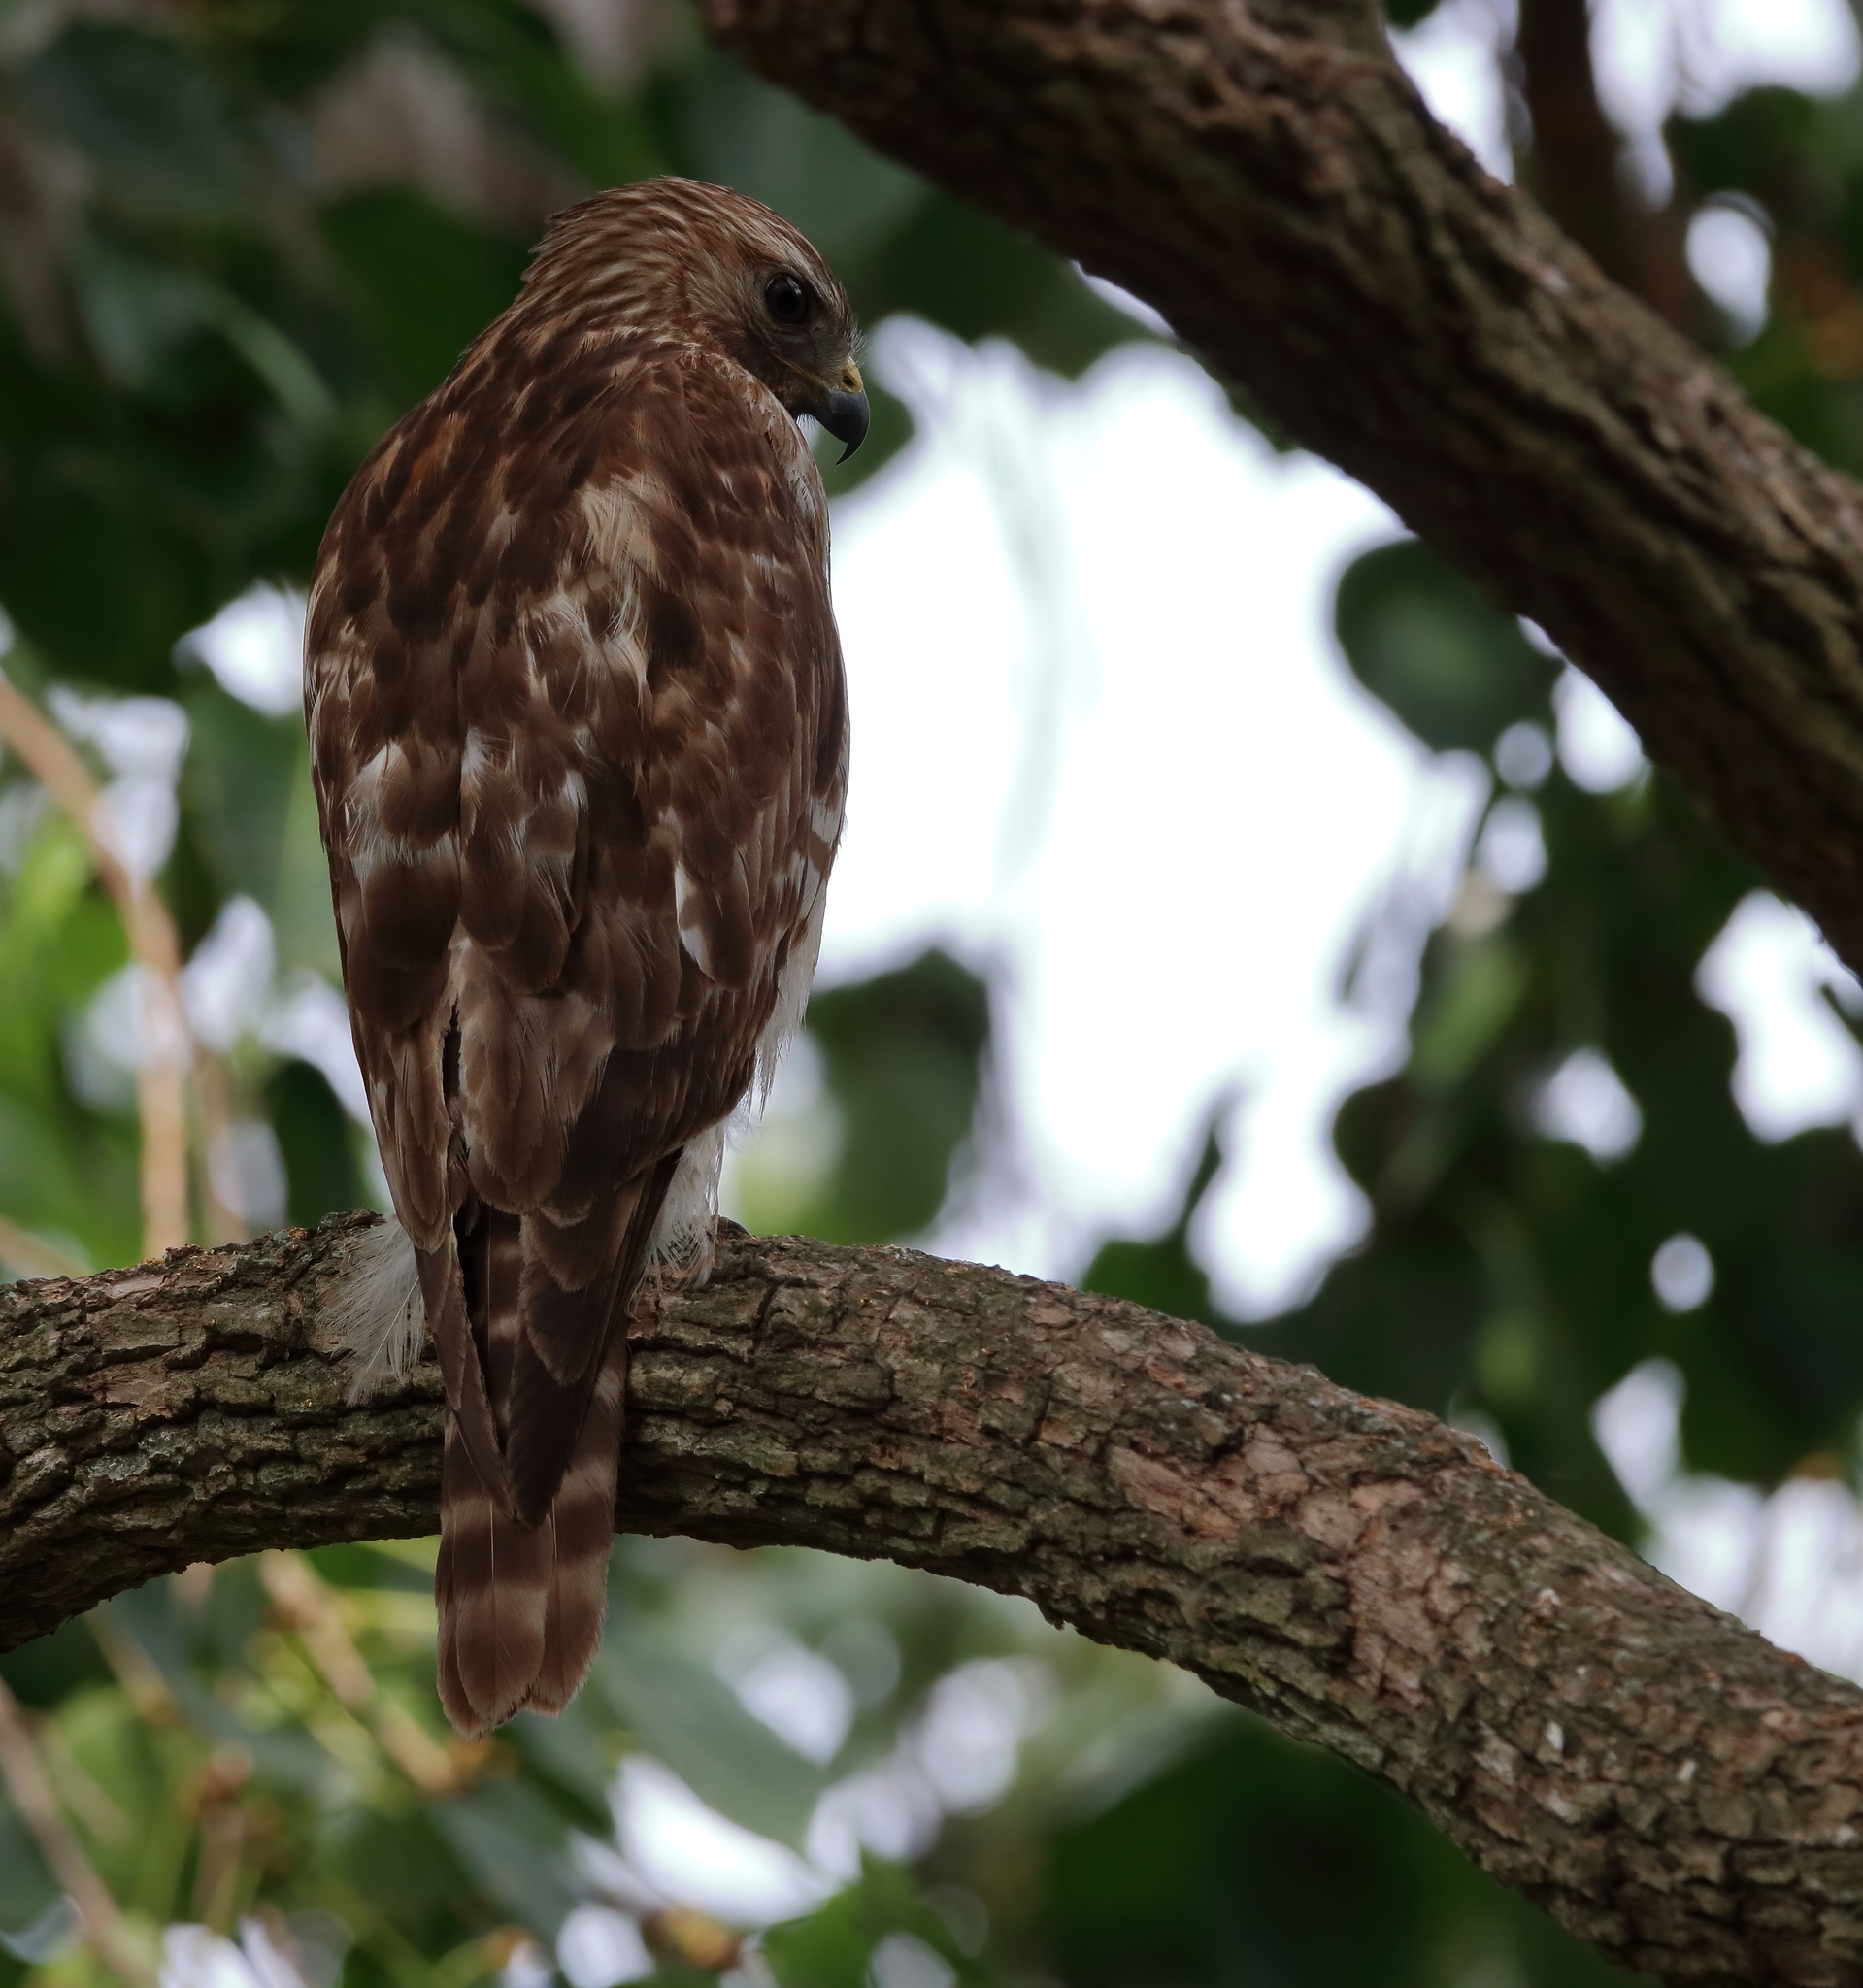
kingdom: Animalia
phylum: Chordata
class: Aves
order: Accipitriformes
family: Accipitridae
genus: Buteo
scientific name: Buteo lineatus
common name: Red-shouldered hawk
